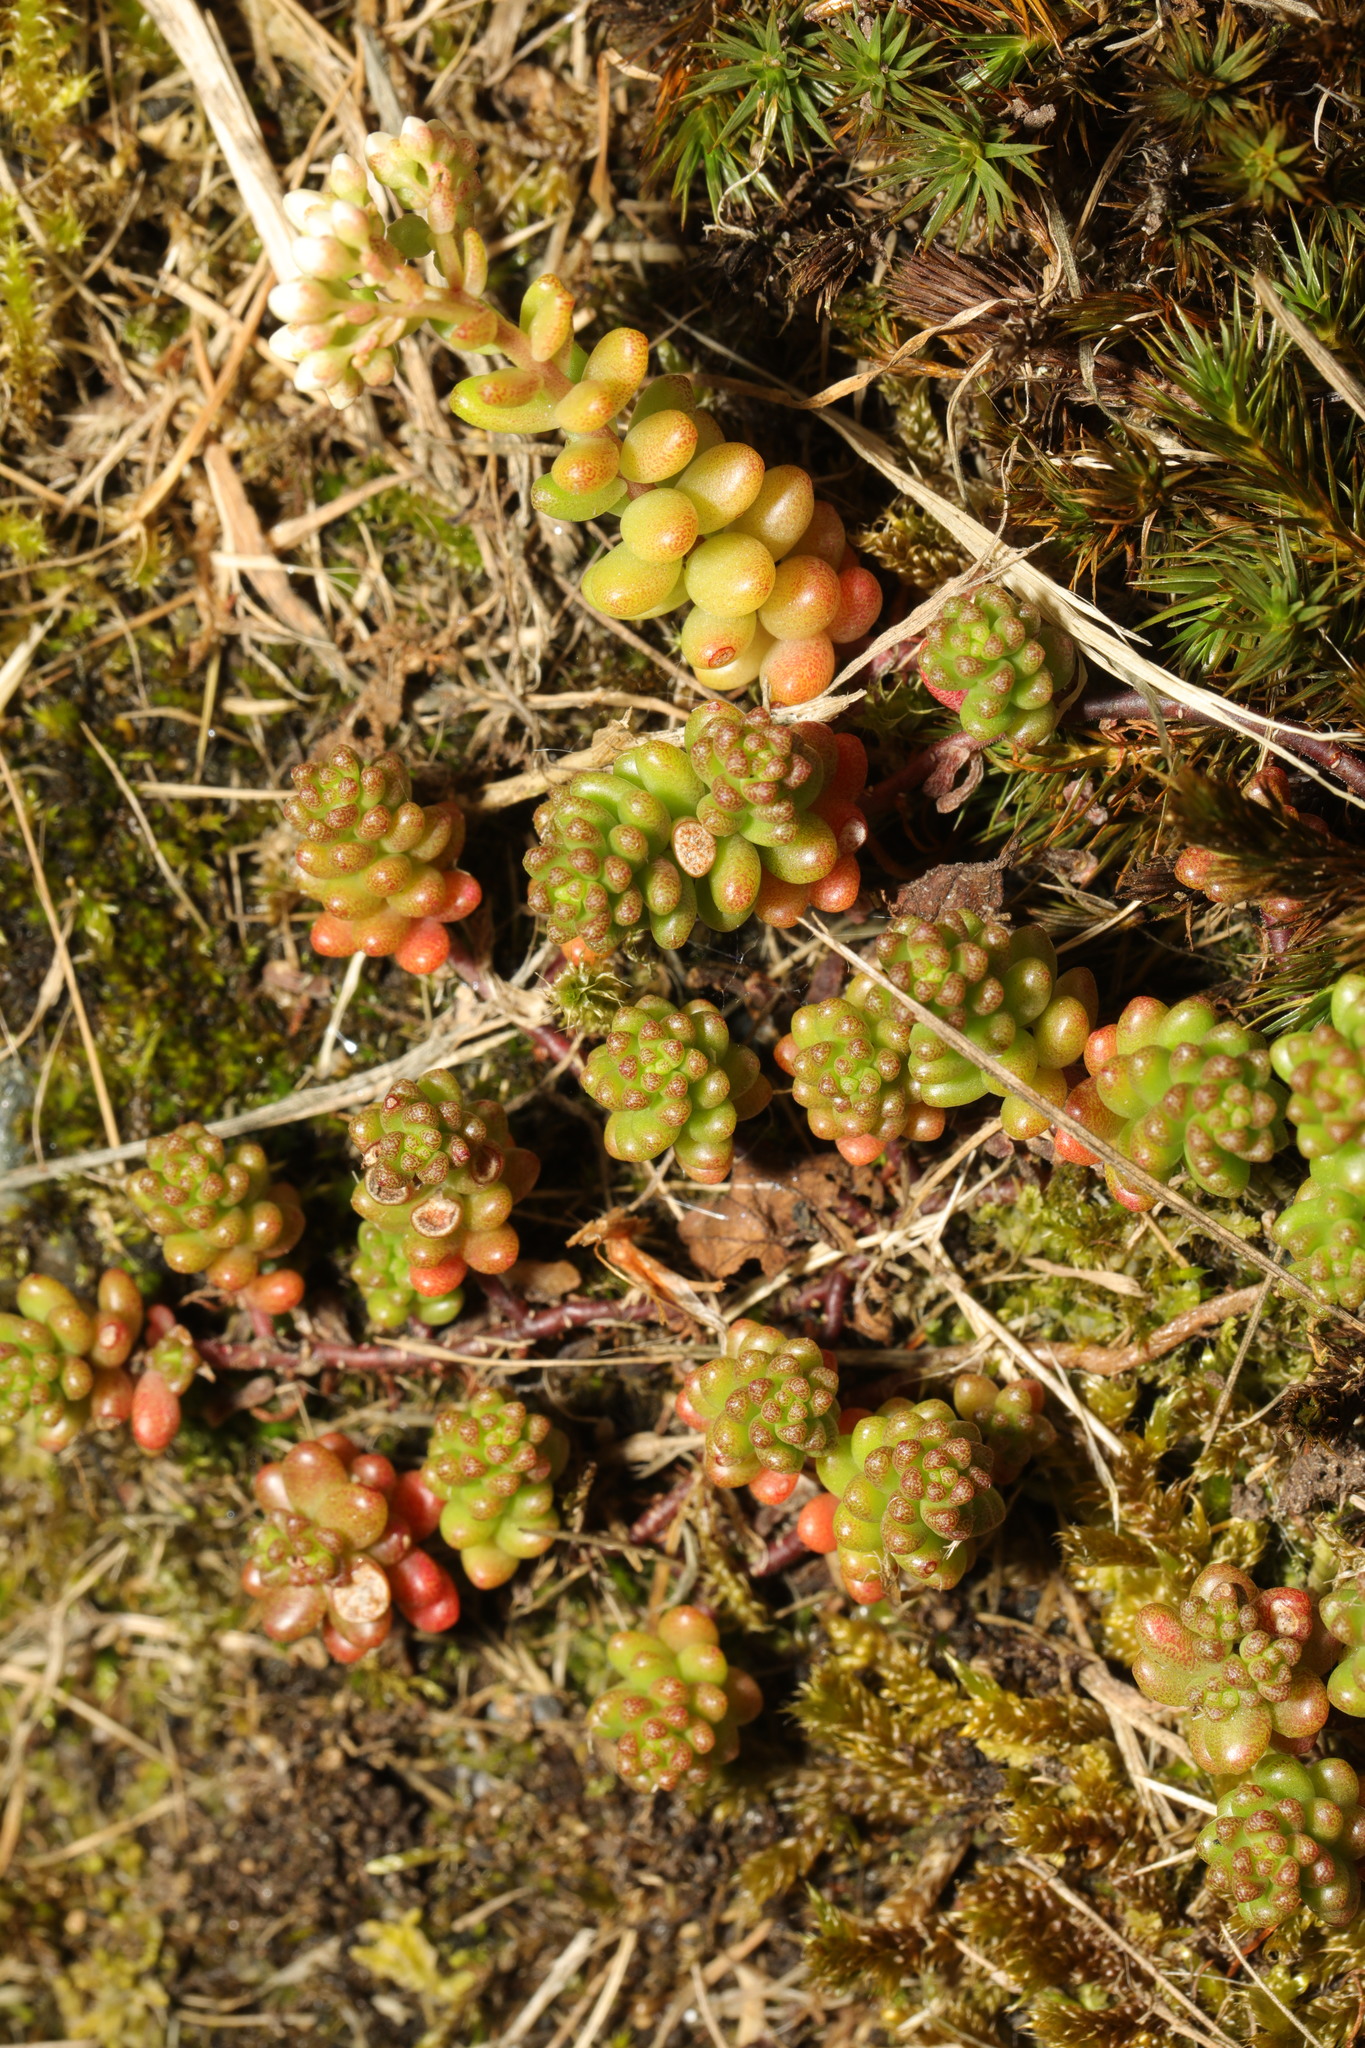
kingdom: Plantae
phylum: Tracheophyta
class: Magnoliopsida
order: Saxifragales
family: Crassulaceae
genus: Sedum
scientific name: Sedum album
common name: White stonecrop
